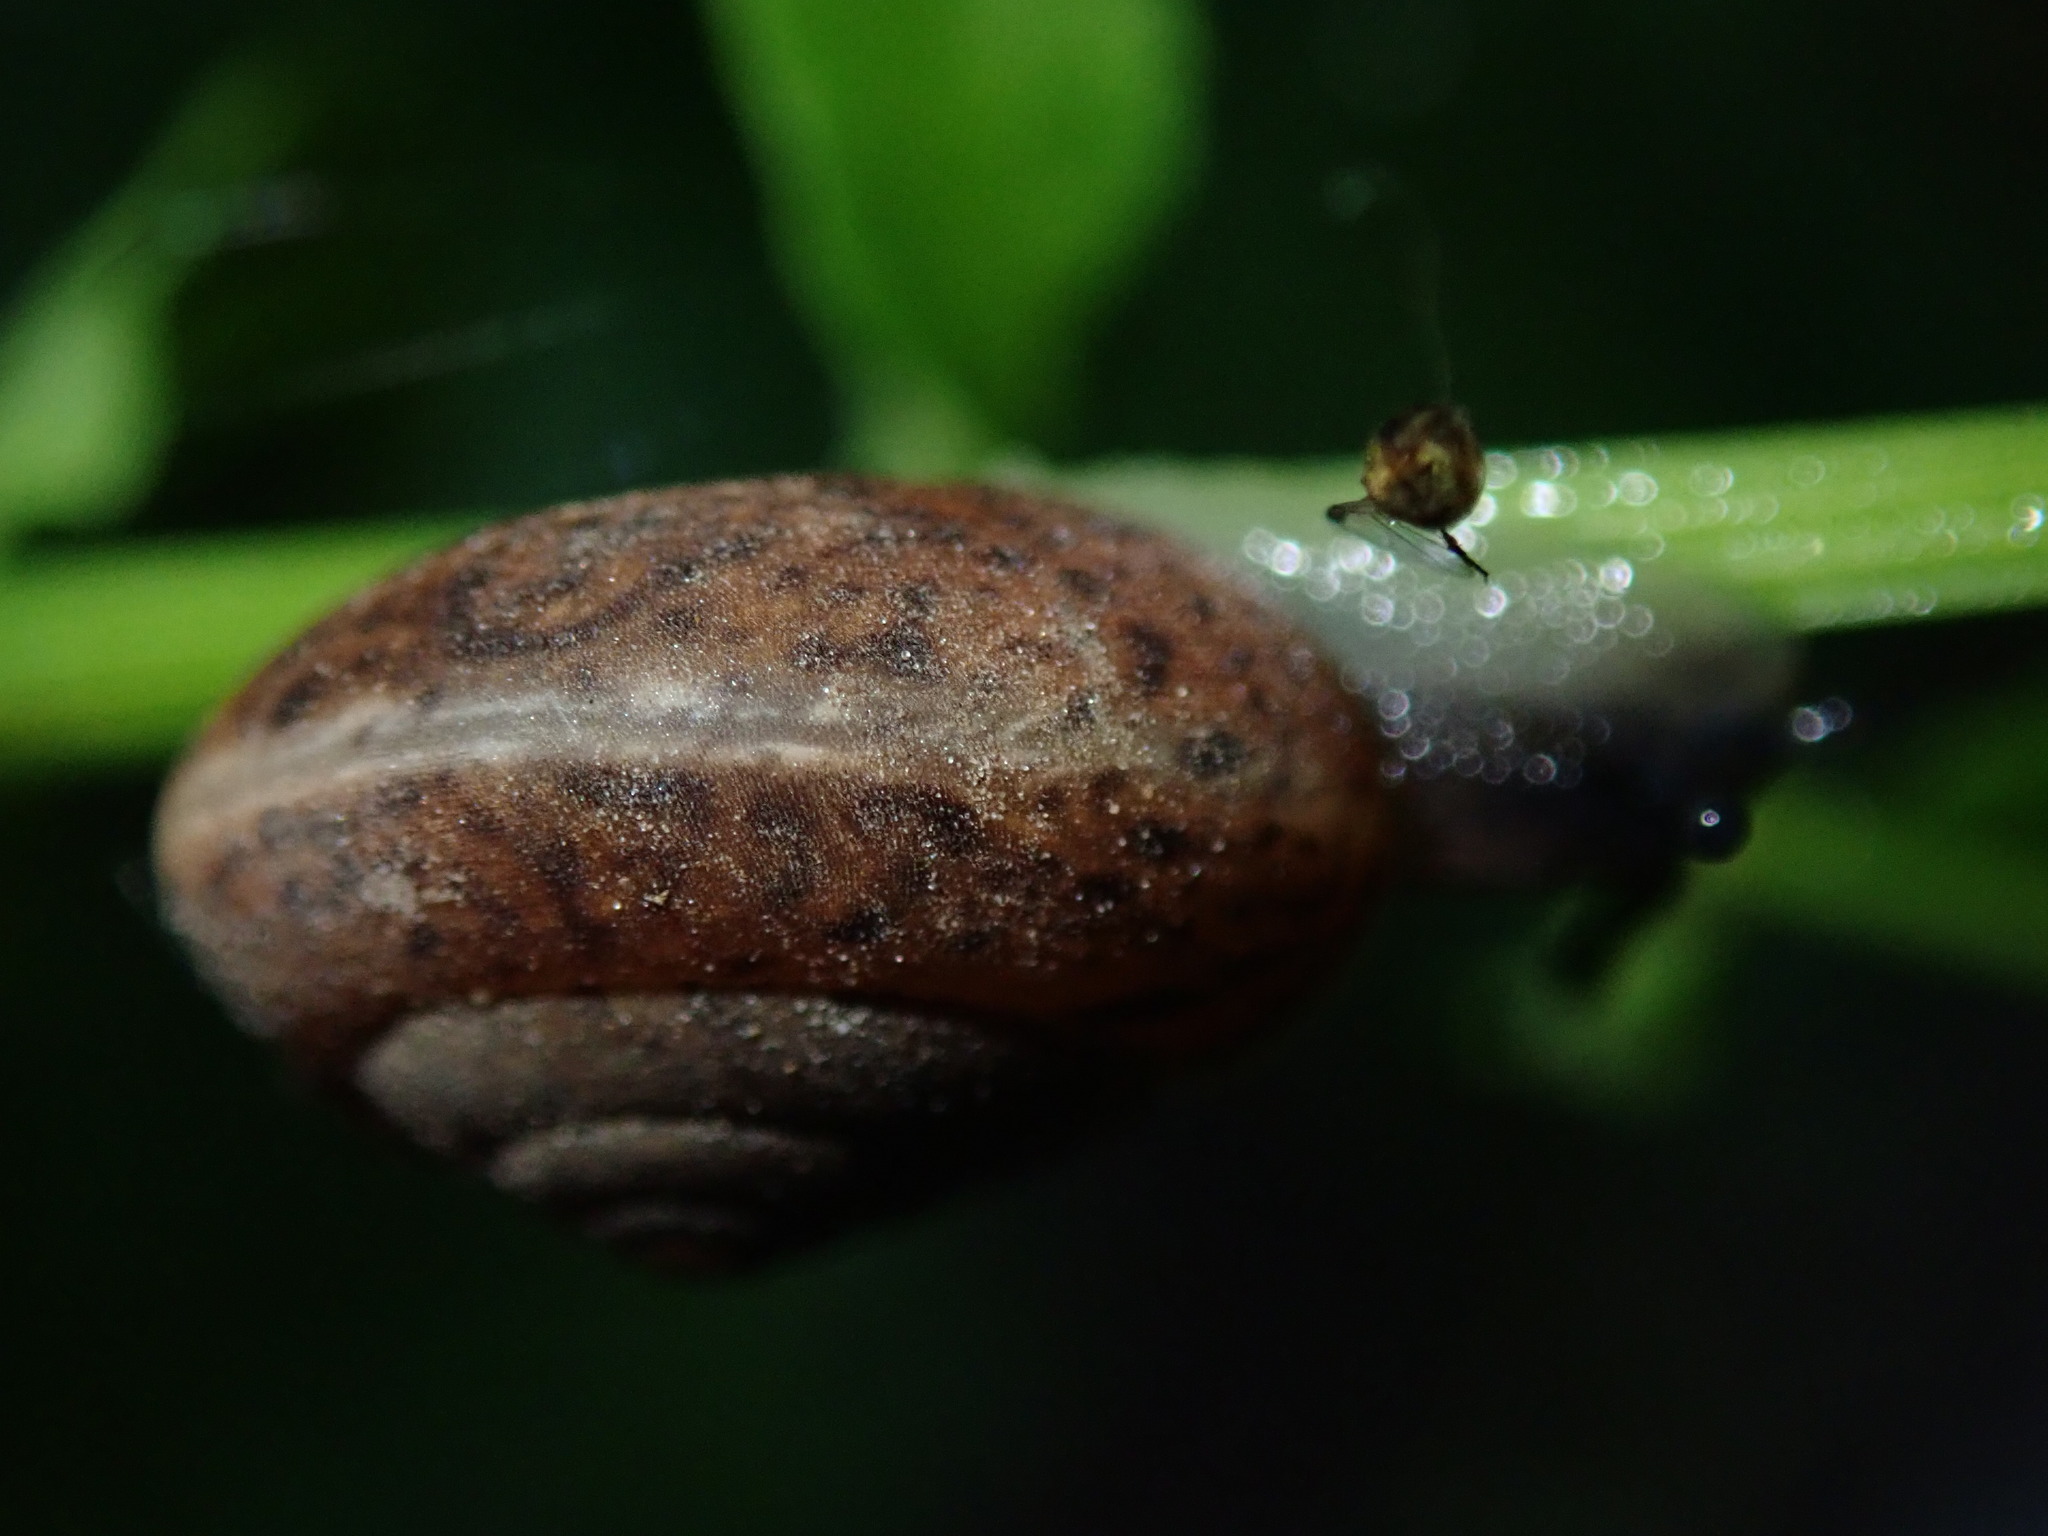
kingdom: Animalia
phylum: Mollusca
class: Gastropoda
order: Stylommatophora
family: Hygromiidae
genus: Monachoides
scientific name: Monachoides incarnatus
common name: Incarnate snail
